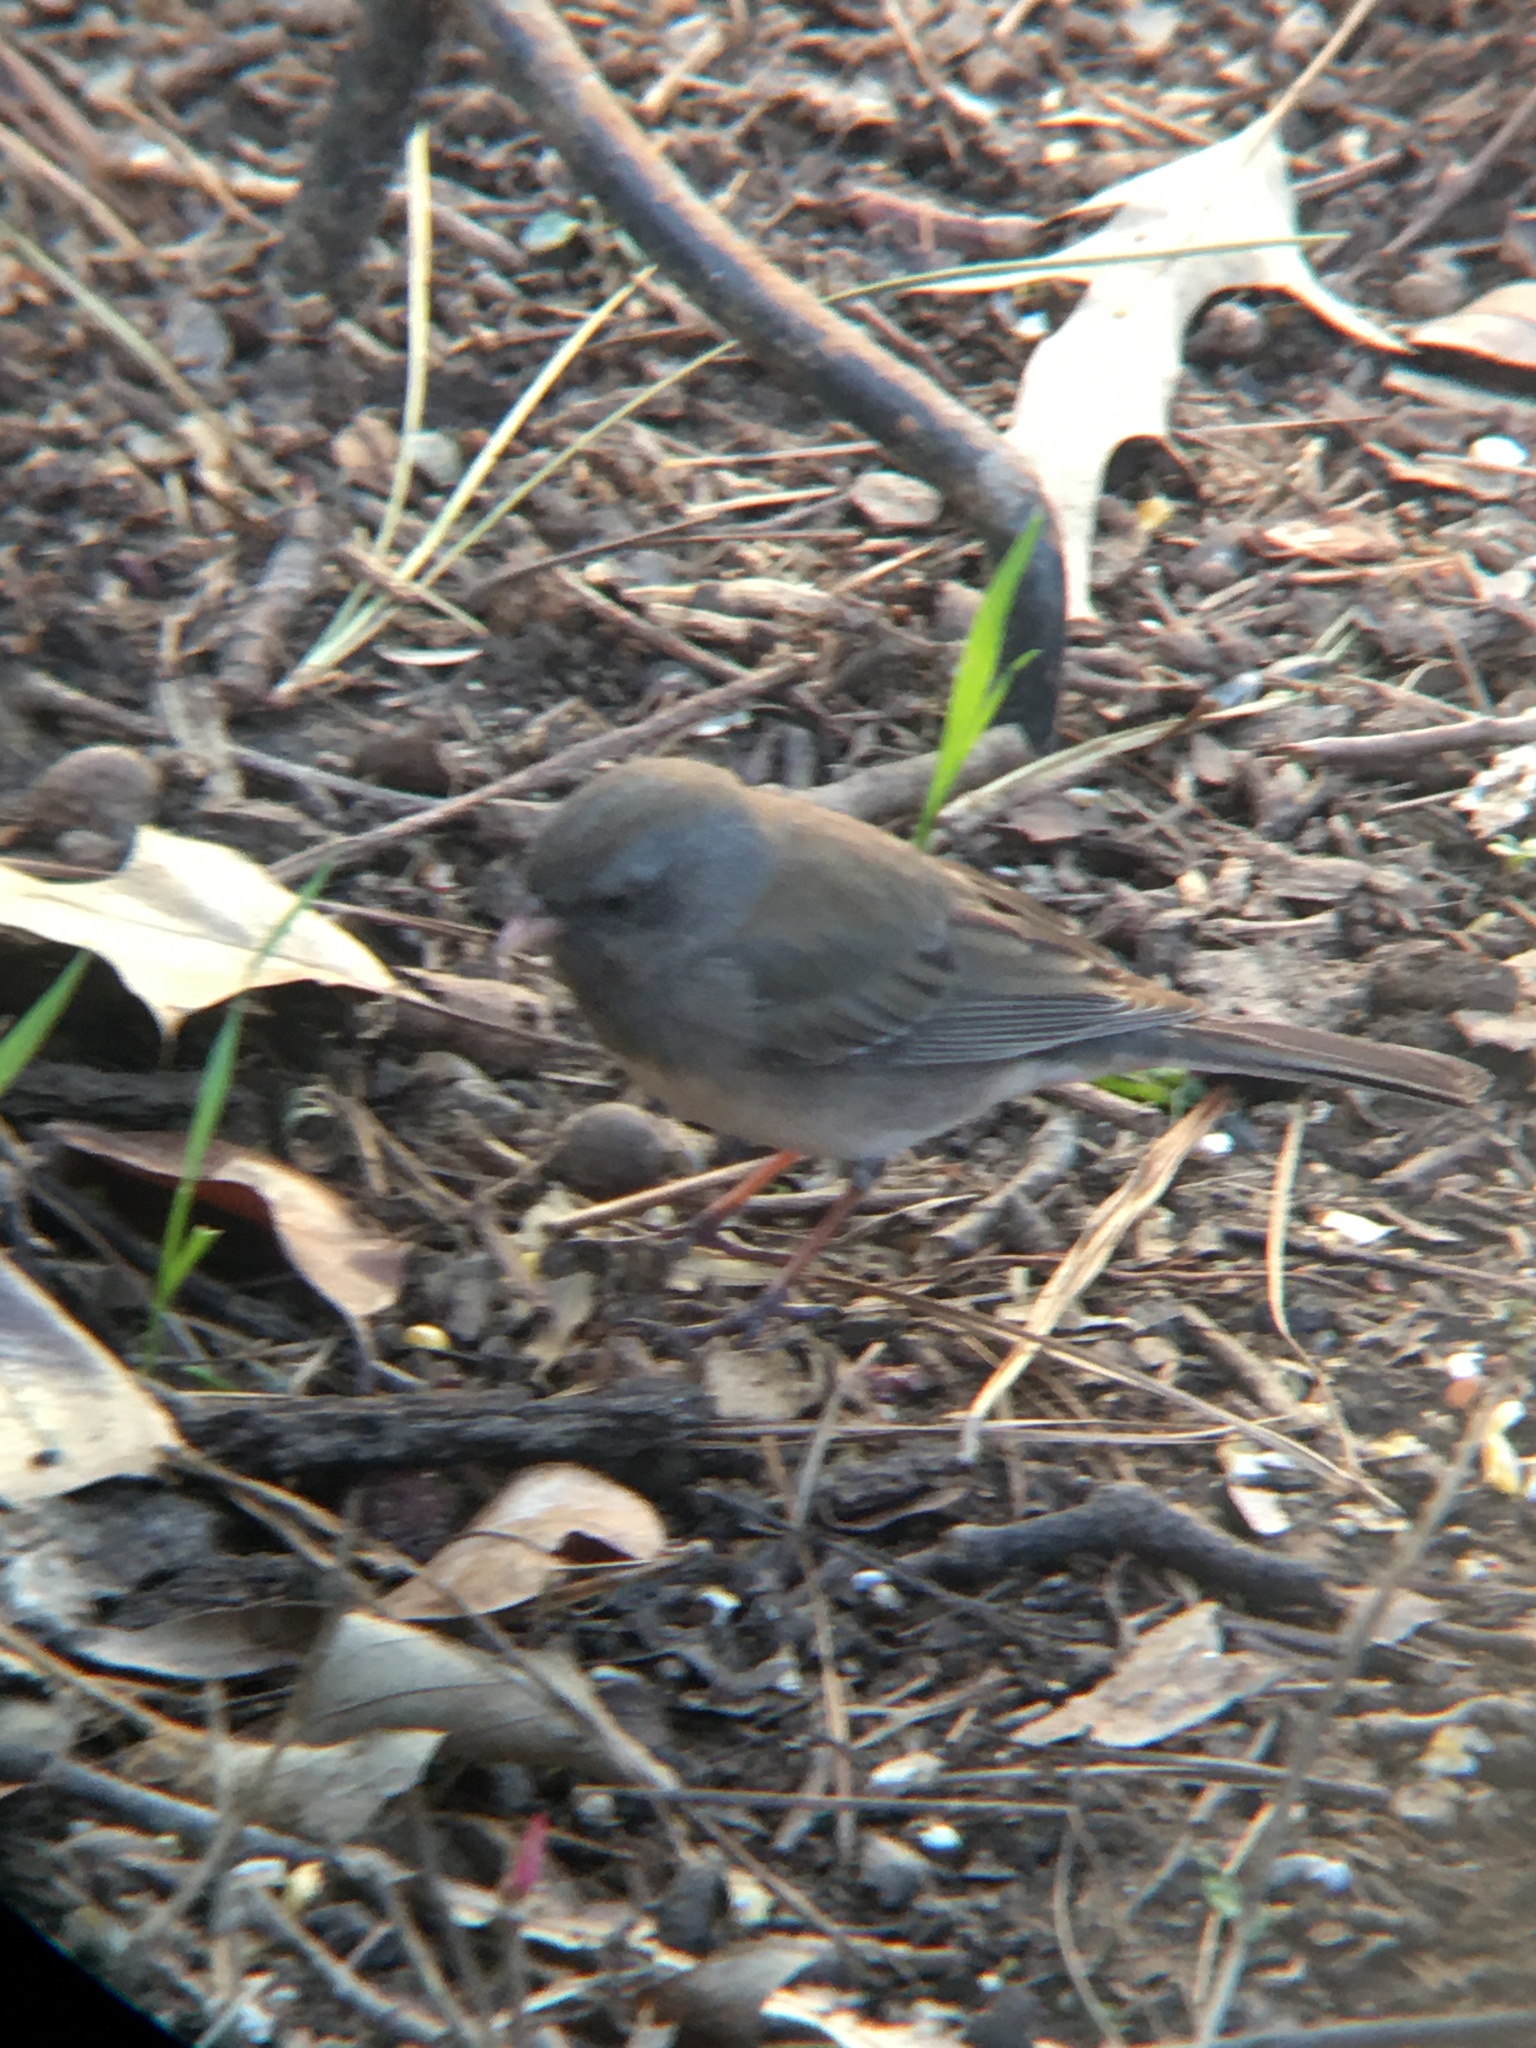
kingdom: Animalia
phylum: Chordata
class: Aves
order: Passeriformes
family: Passerellidae
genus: Junco
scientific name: Junco hyemalis
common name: Dark-eyed junco
